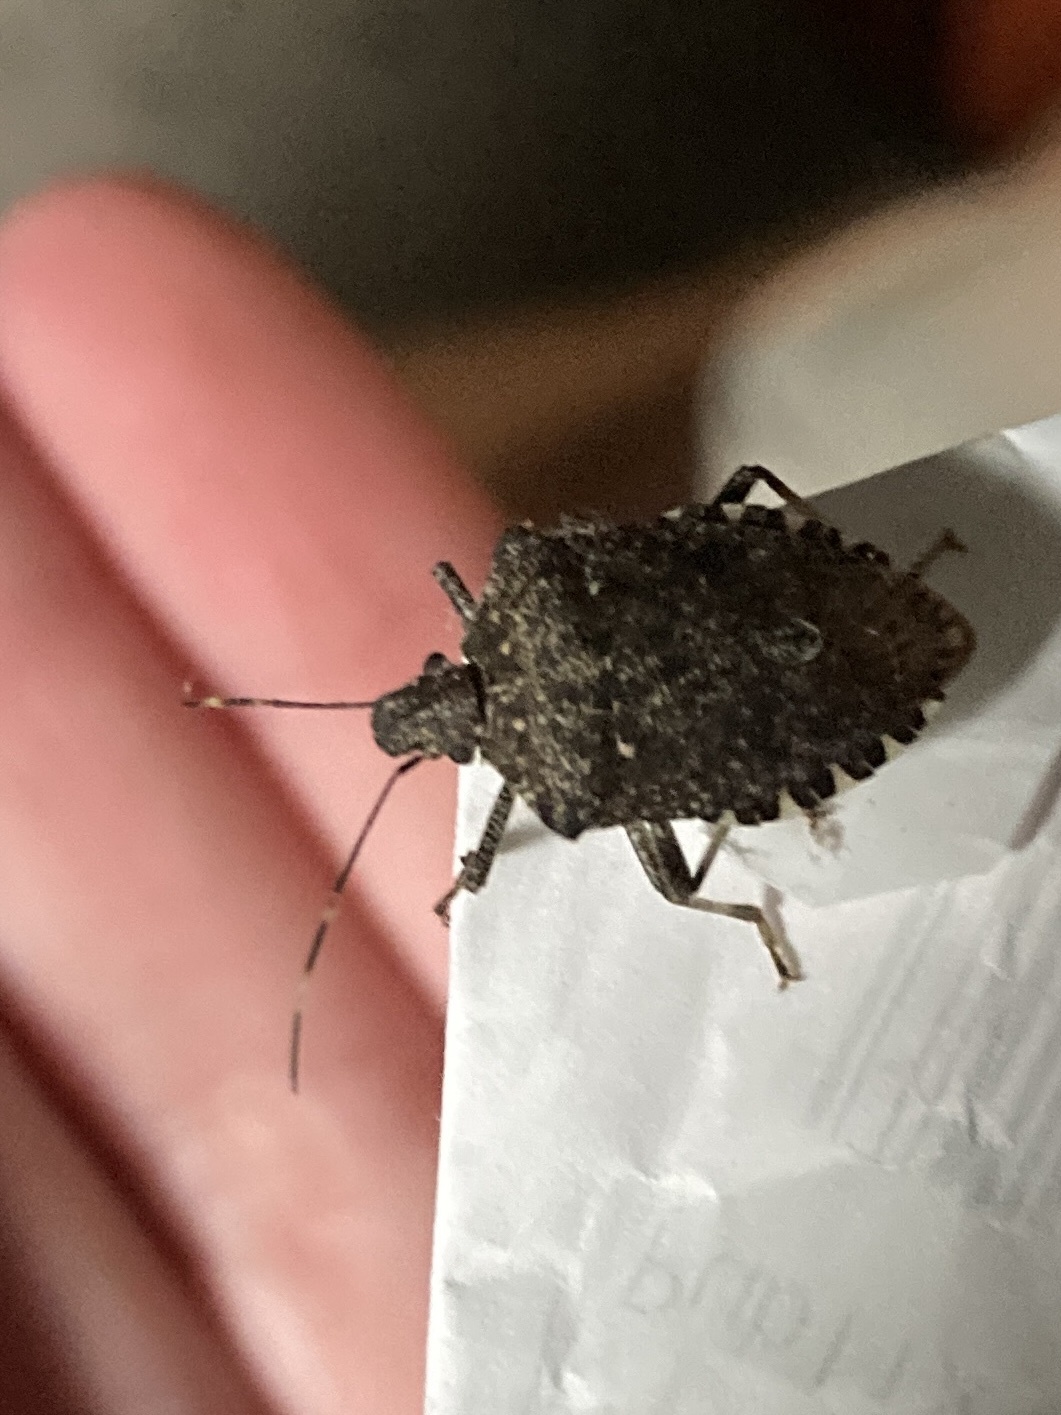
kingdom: Animalia
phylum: Arthropoda
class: Insecta
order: Hemiptera
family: Pentatomidae
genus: Halyomorpha
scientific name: Halyomorpha halys
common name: Brown marmorated stink bug
